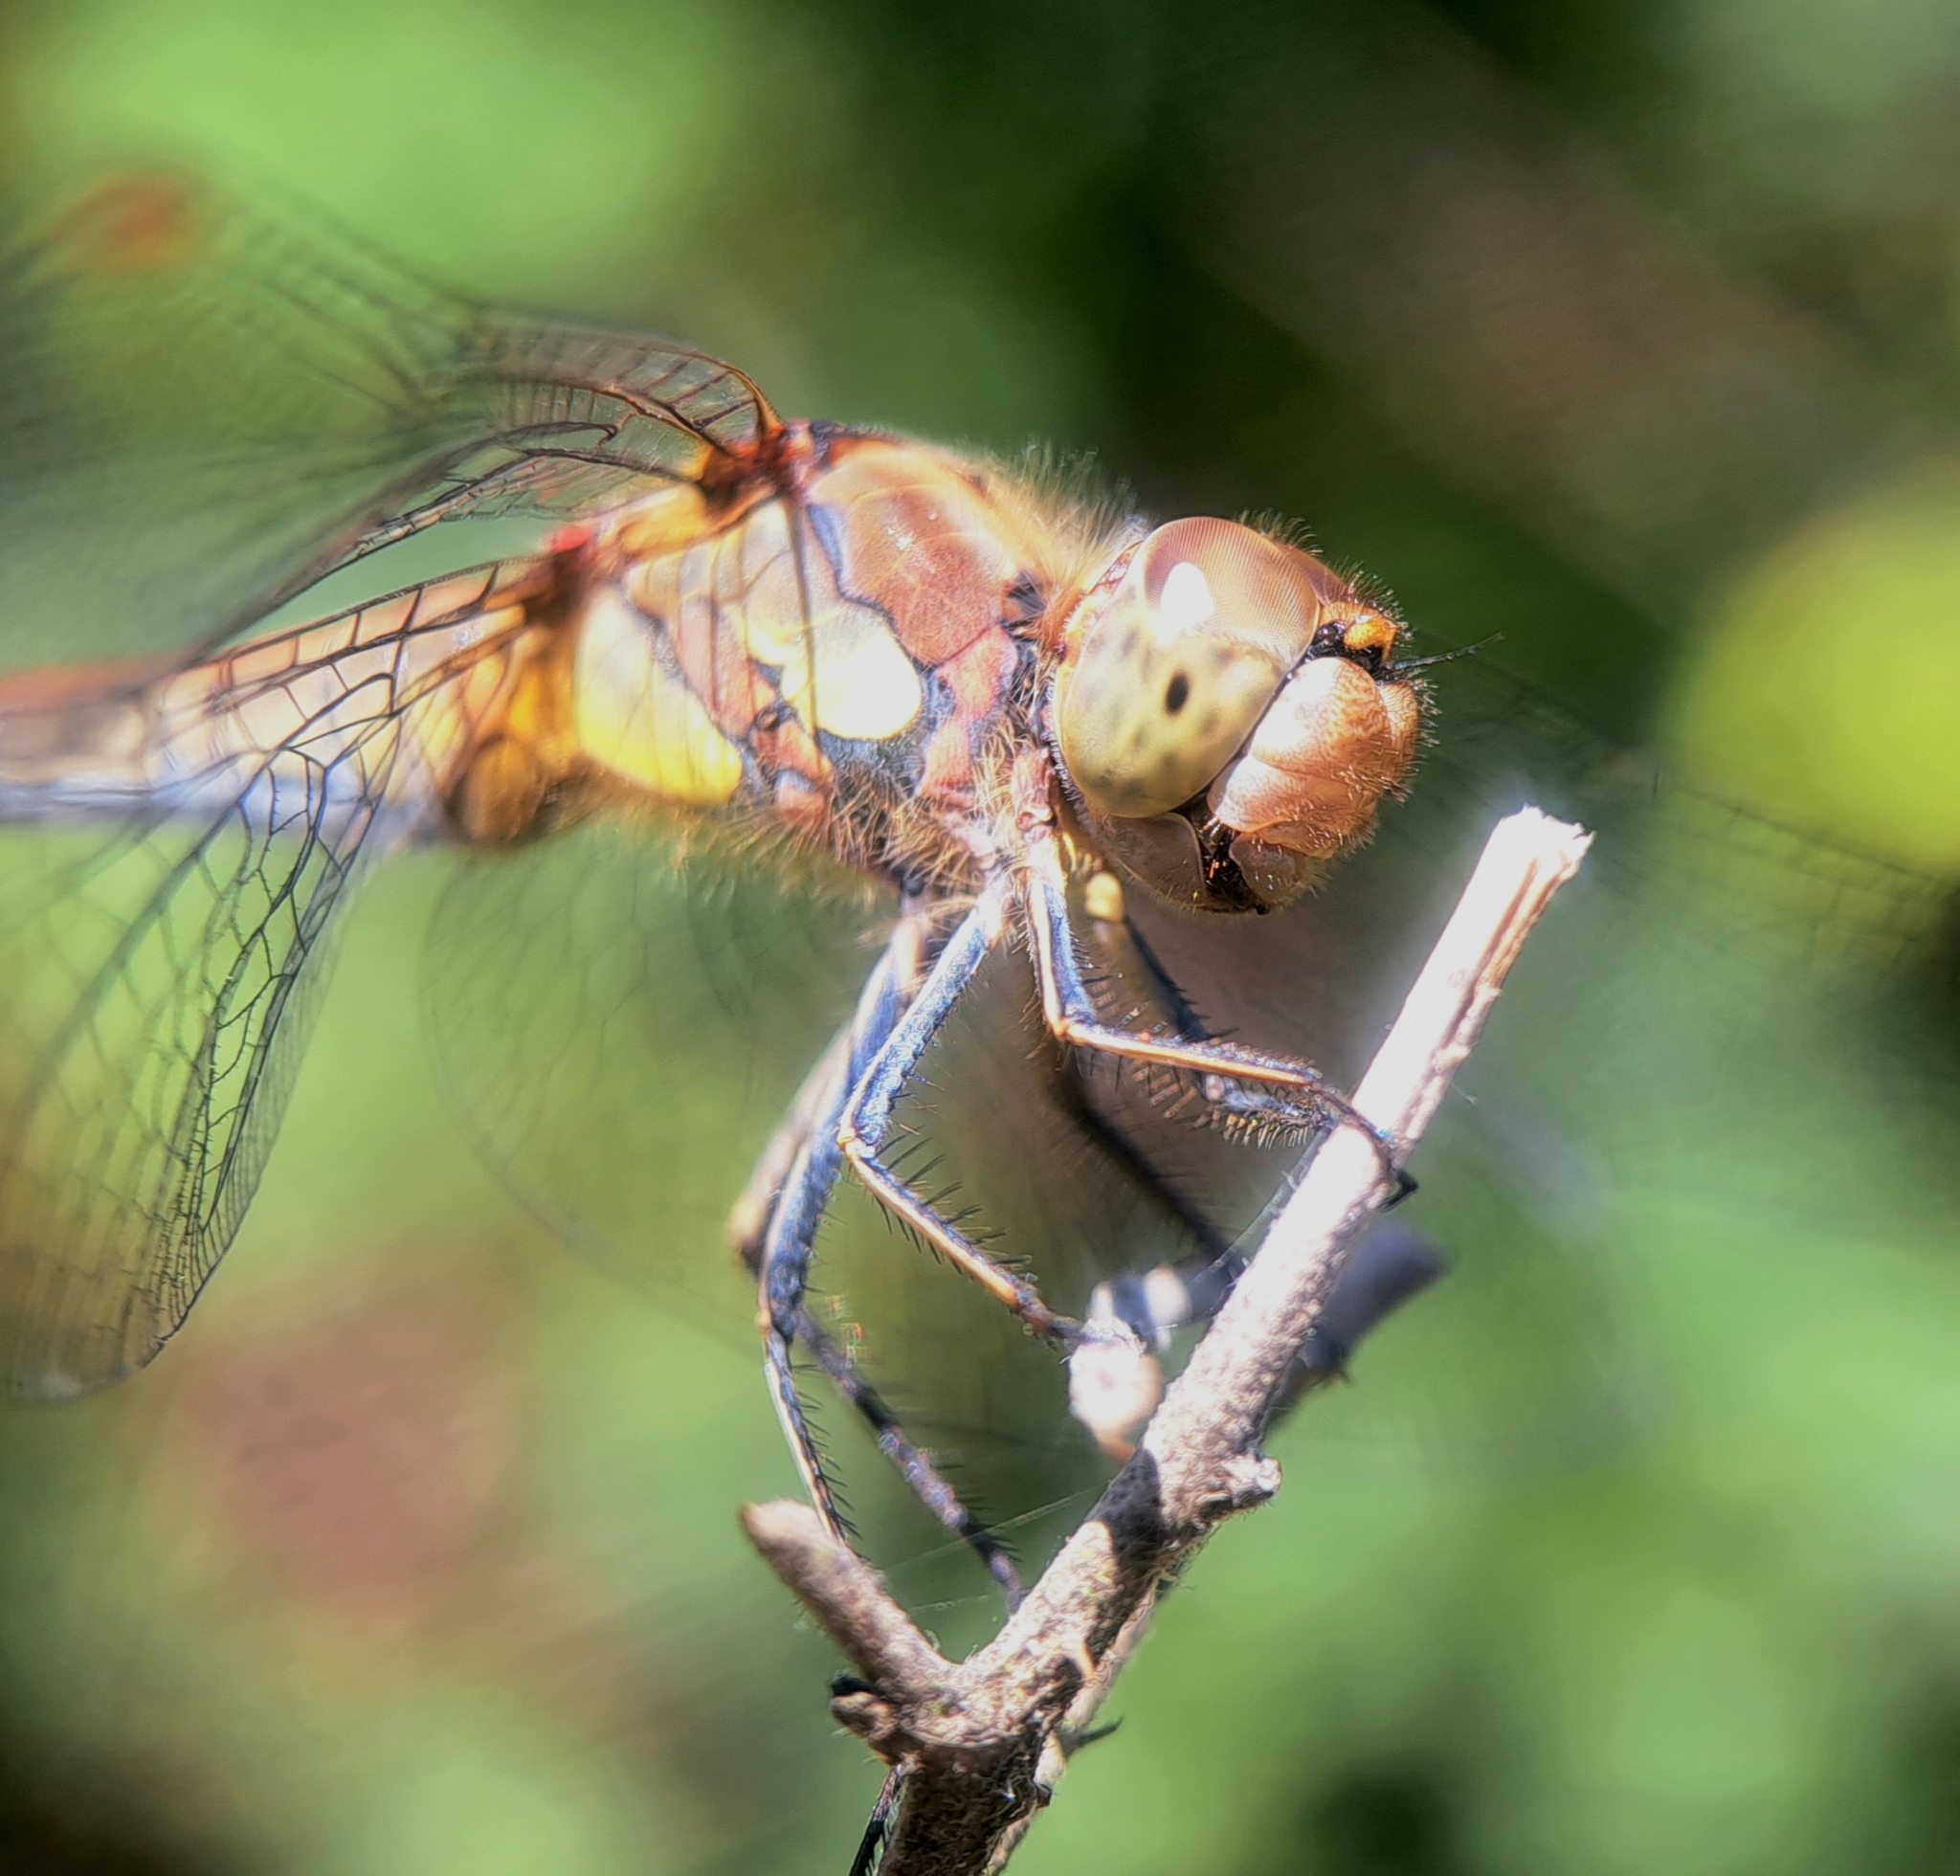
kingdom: Animalia
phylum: Arthropoda
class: Insecta
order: Odonata
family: Libellulidae
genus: Sympetrum
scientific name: Sympetrum striolatum
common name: Common darter
